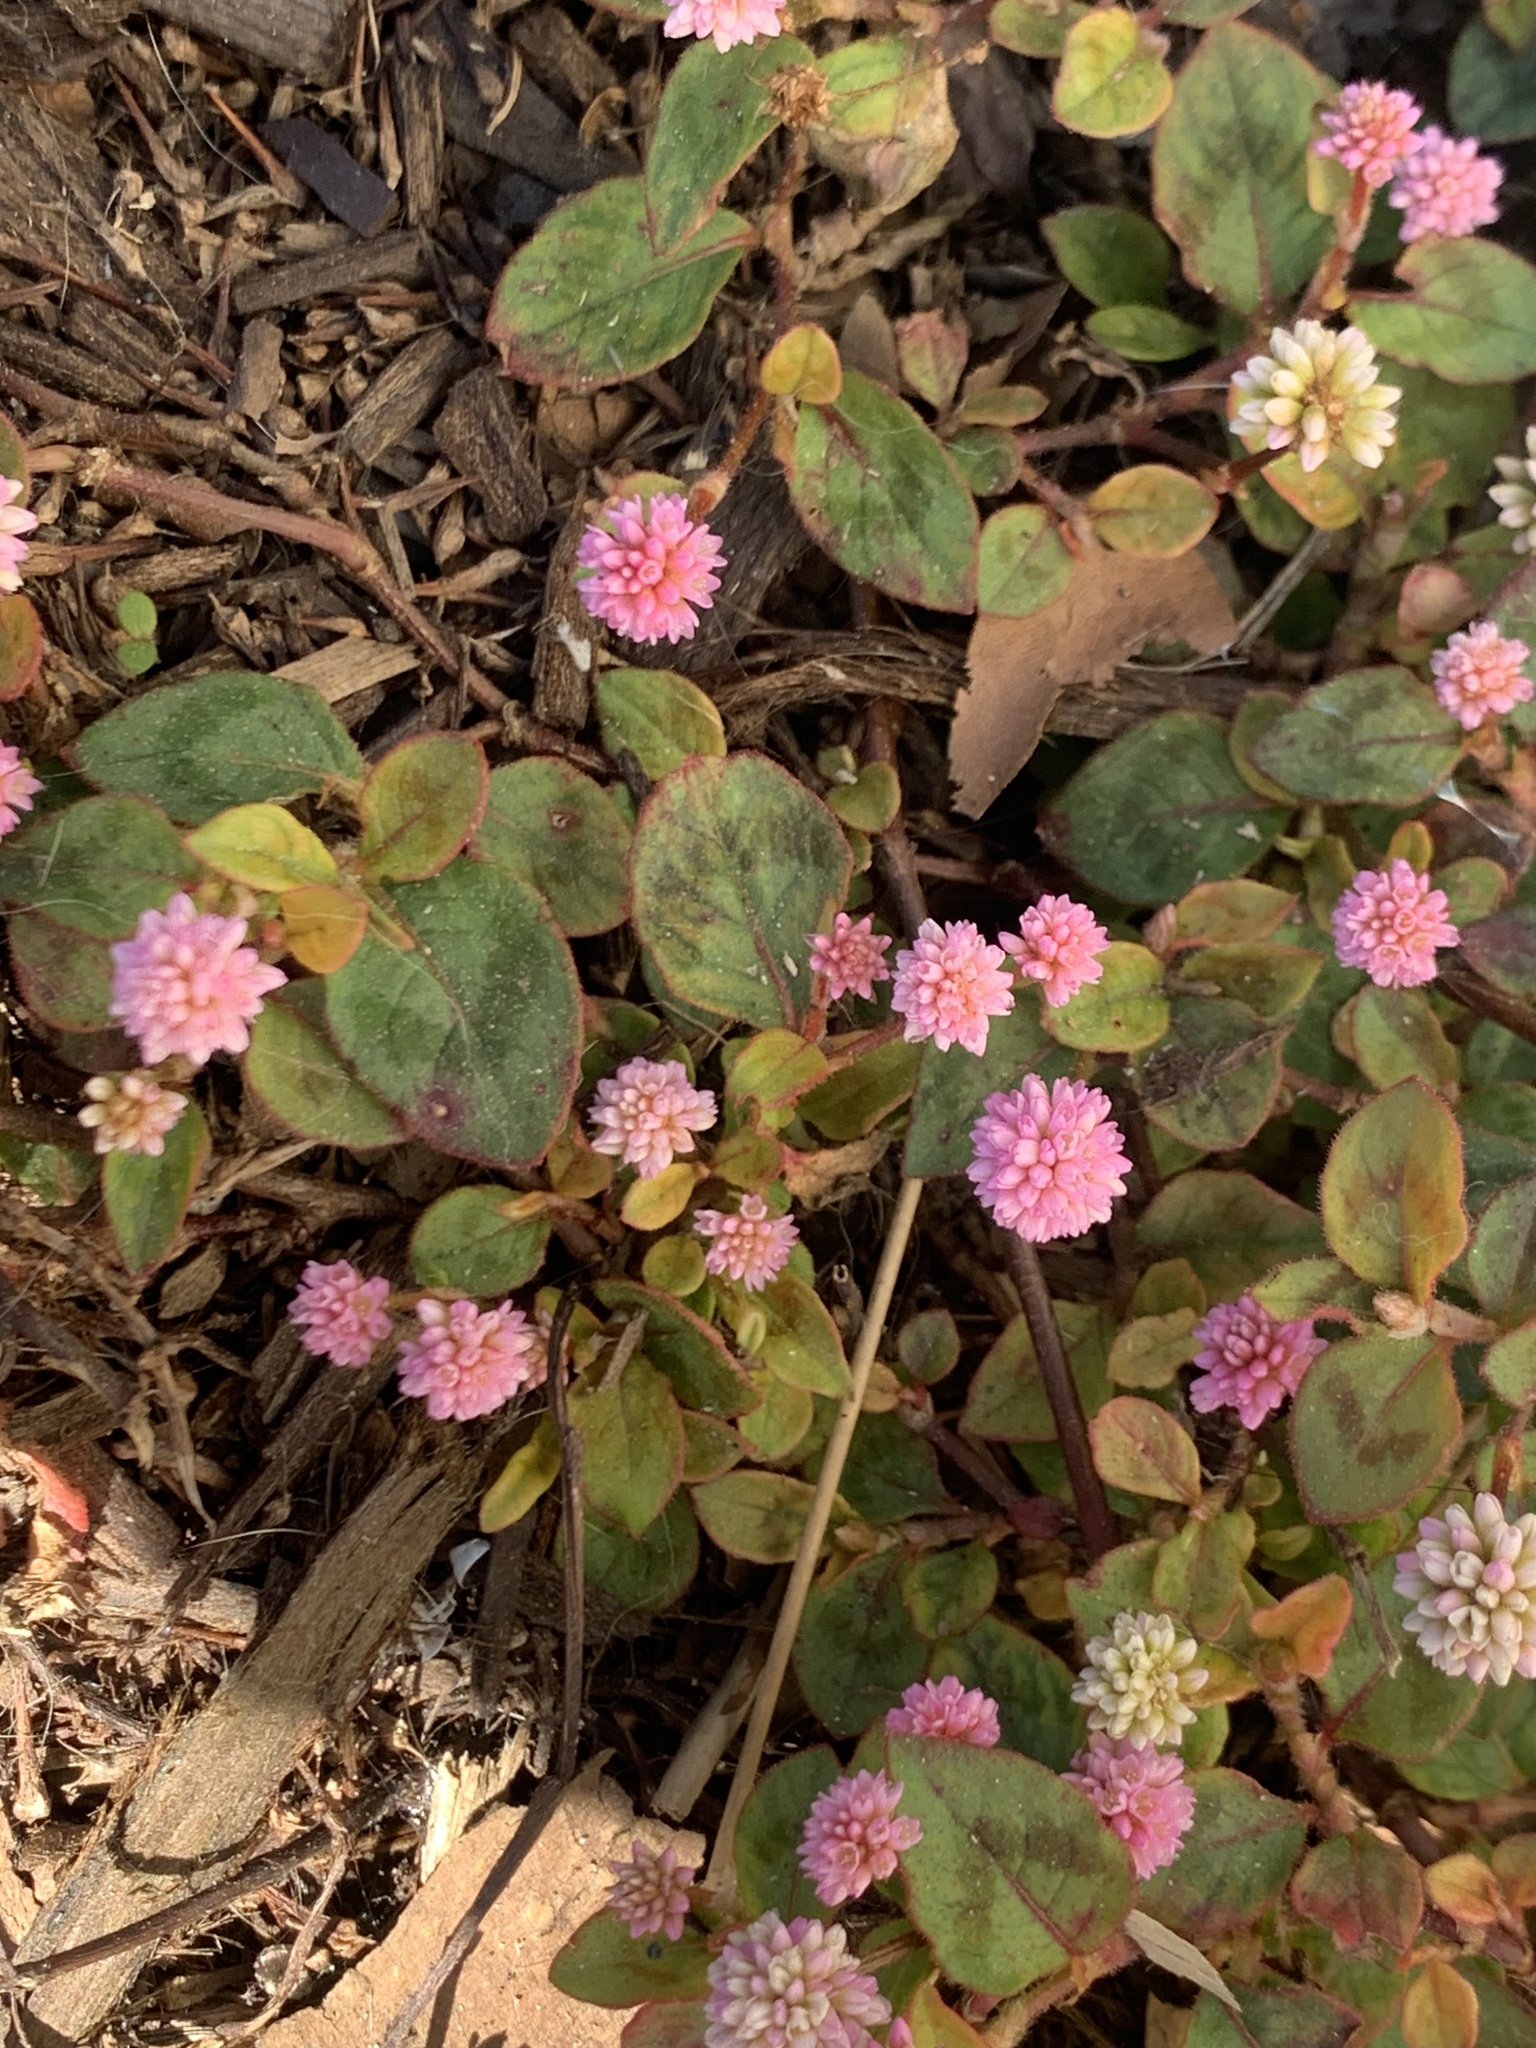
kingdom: Plantae
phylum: Tracheophyta
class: Magnoliopsida
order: Caryophyllales
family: Polygonaceae
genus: Persicaria
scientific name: Persicaria capitata
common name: Pinkhead smartweed
